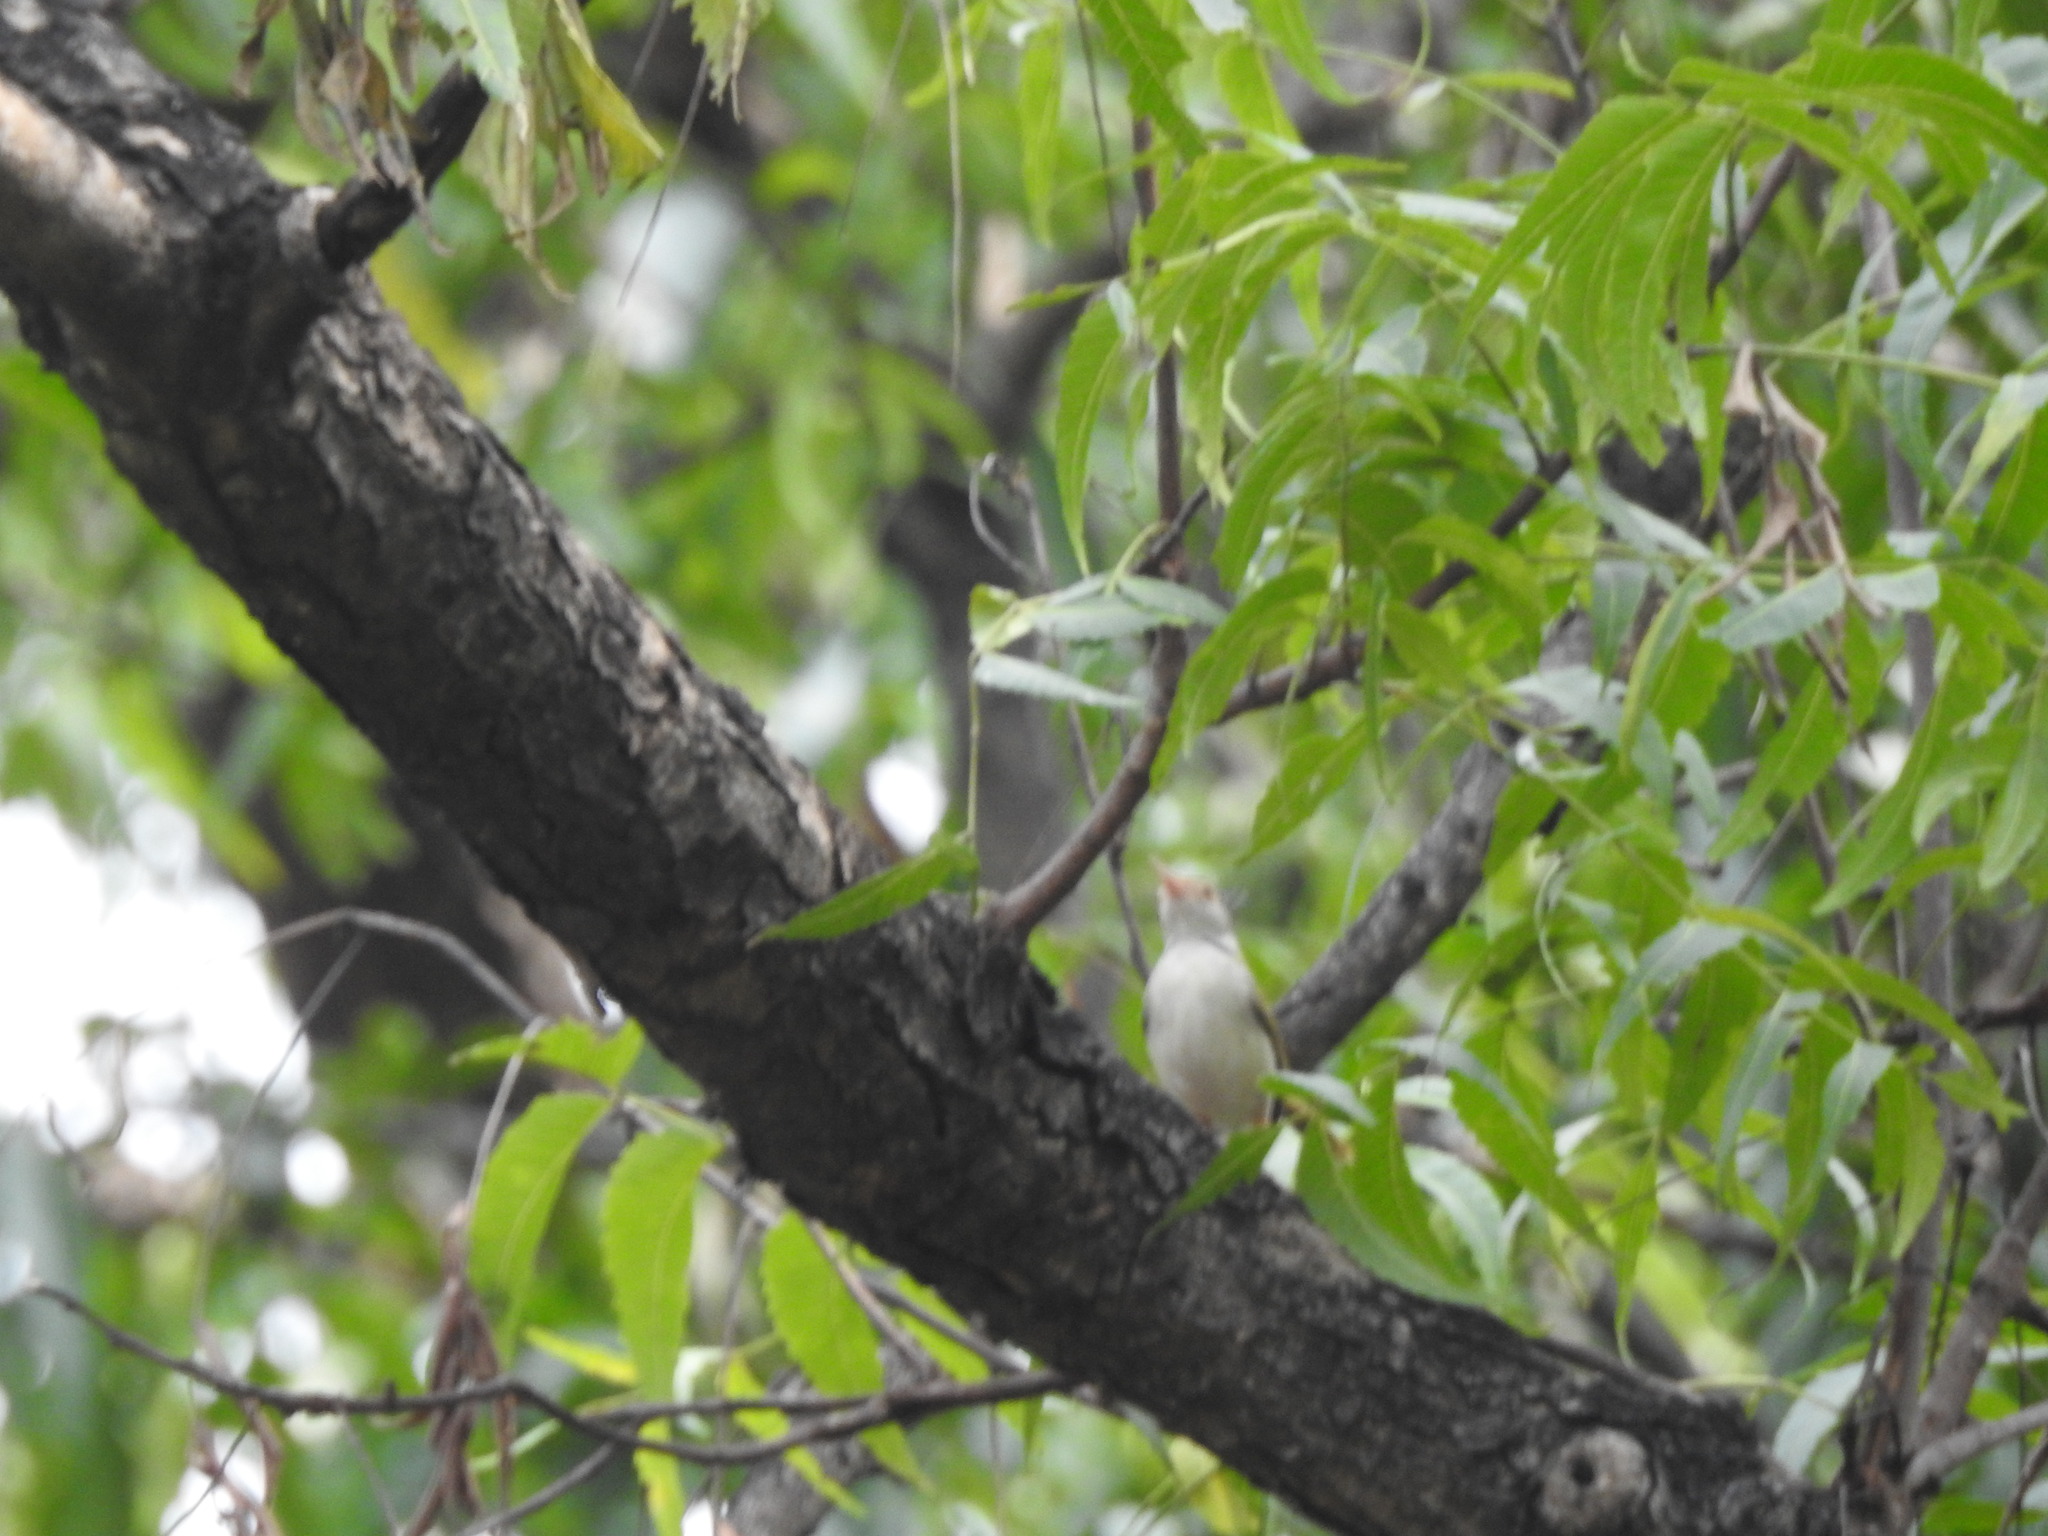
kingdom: Animalia
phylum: Chordata
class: Aves
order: Passeriformes
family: Cisticolidae
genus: Orthotomus
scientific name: Orthotomus sutorius
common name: Common tailorbird
